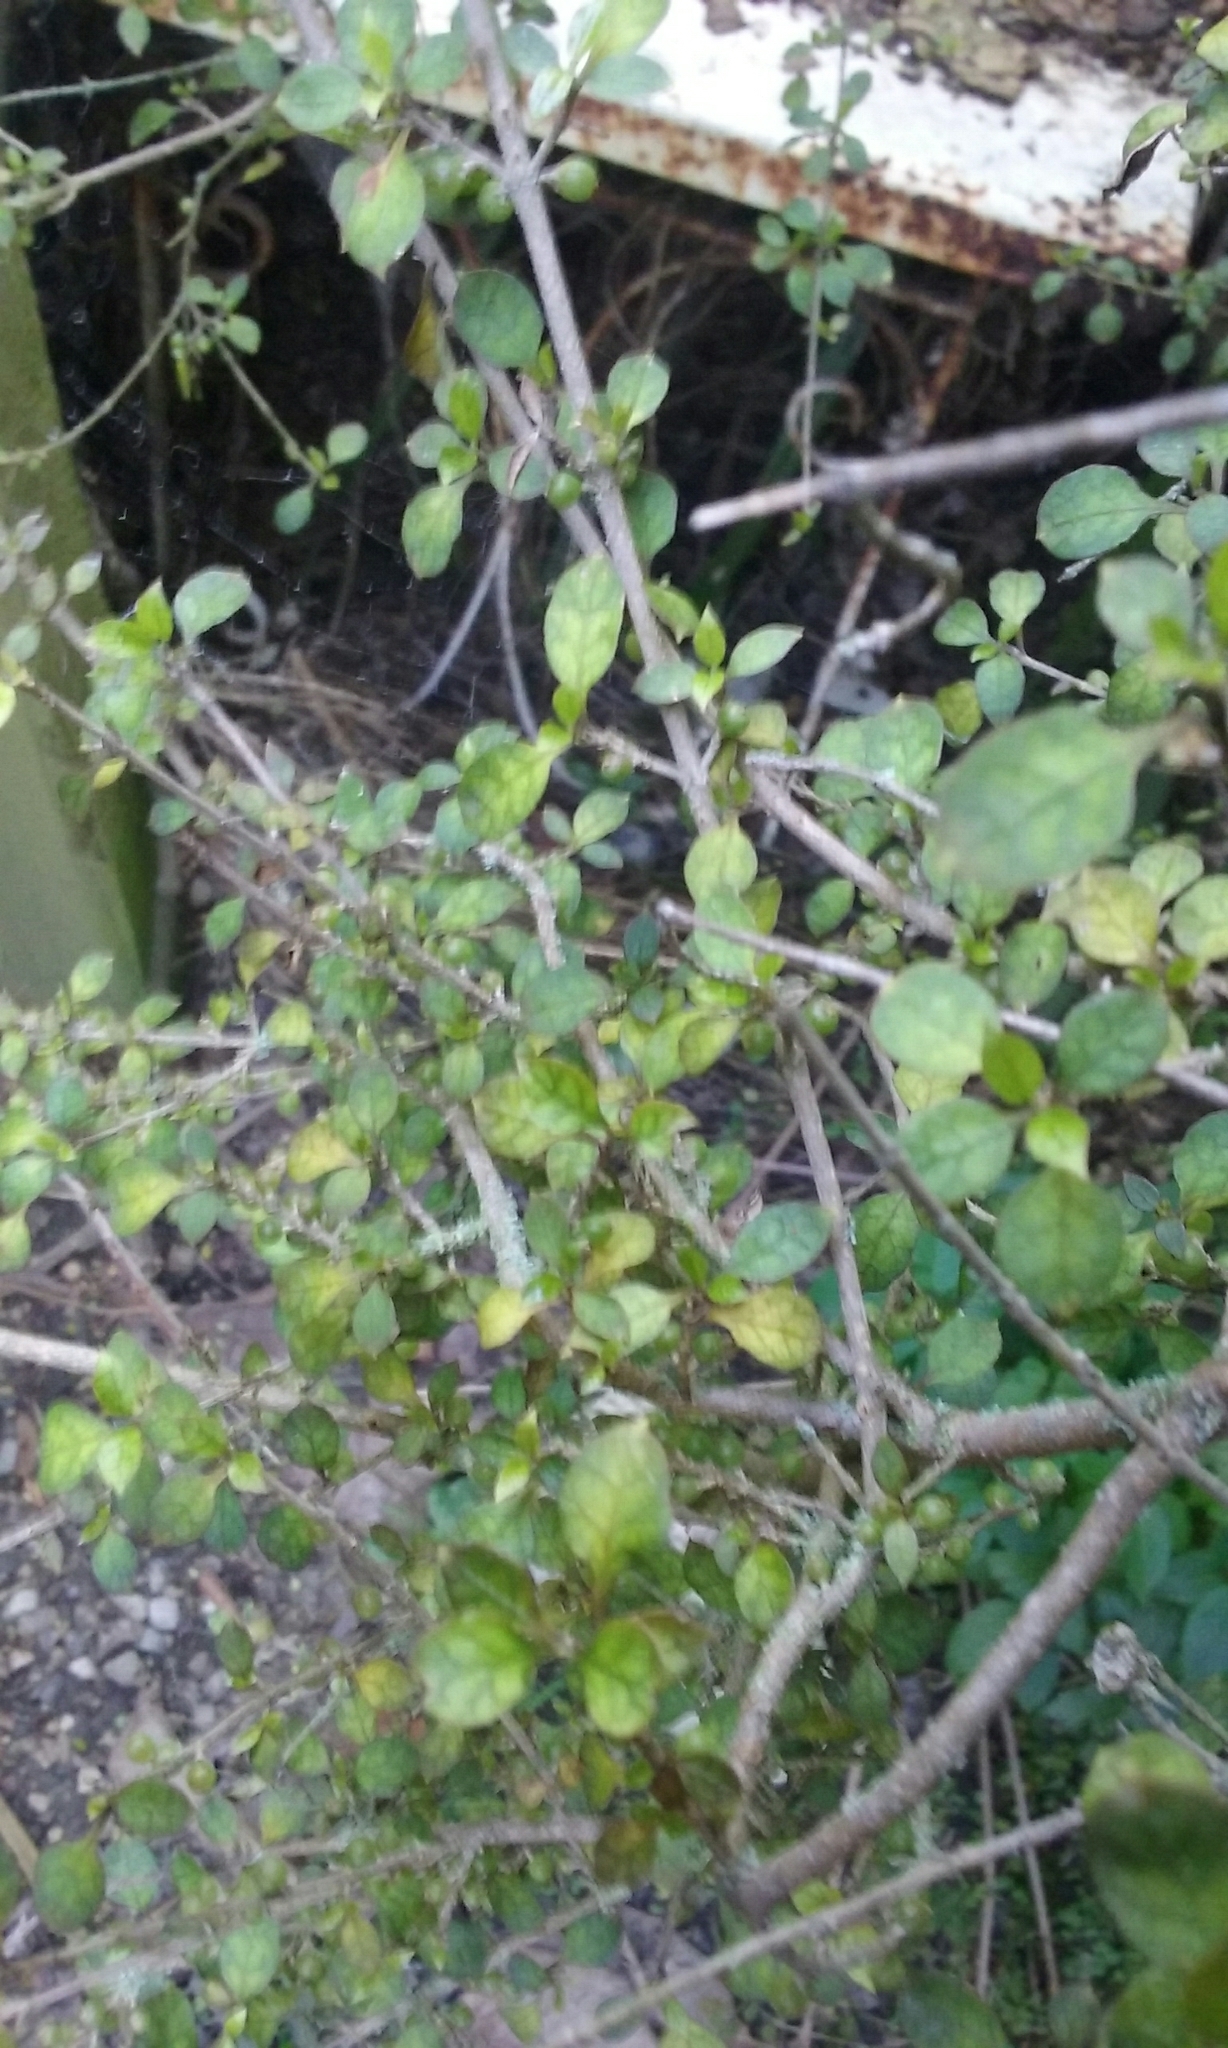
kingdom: Plantae
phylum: Tracheophyta
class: Magnoliopsida
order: Gentianales
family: Rubiaceae
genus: Coprosma
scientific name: Coprosma areolata
